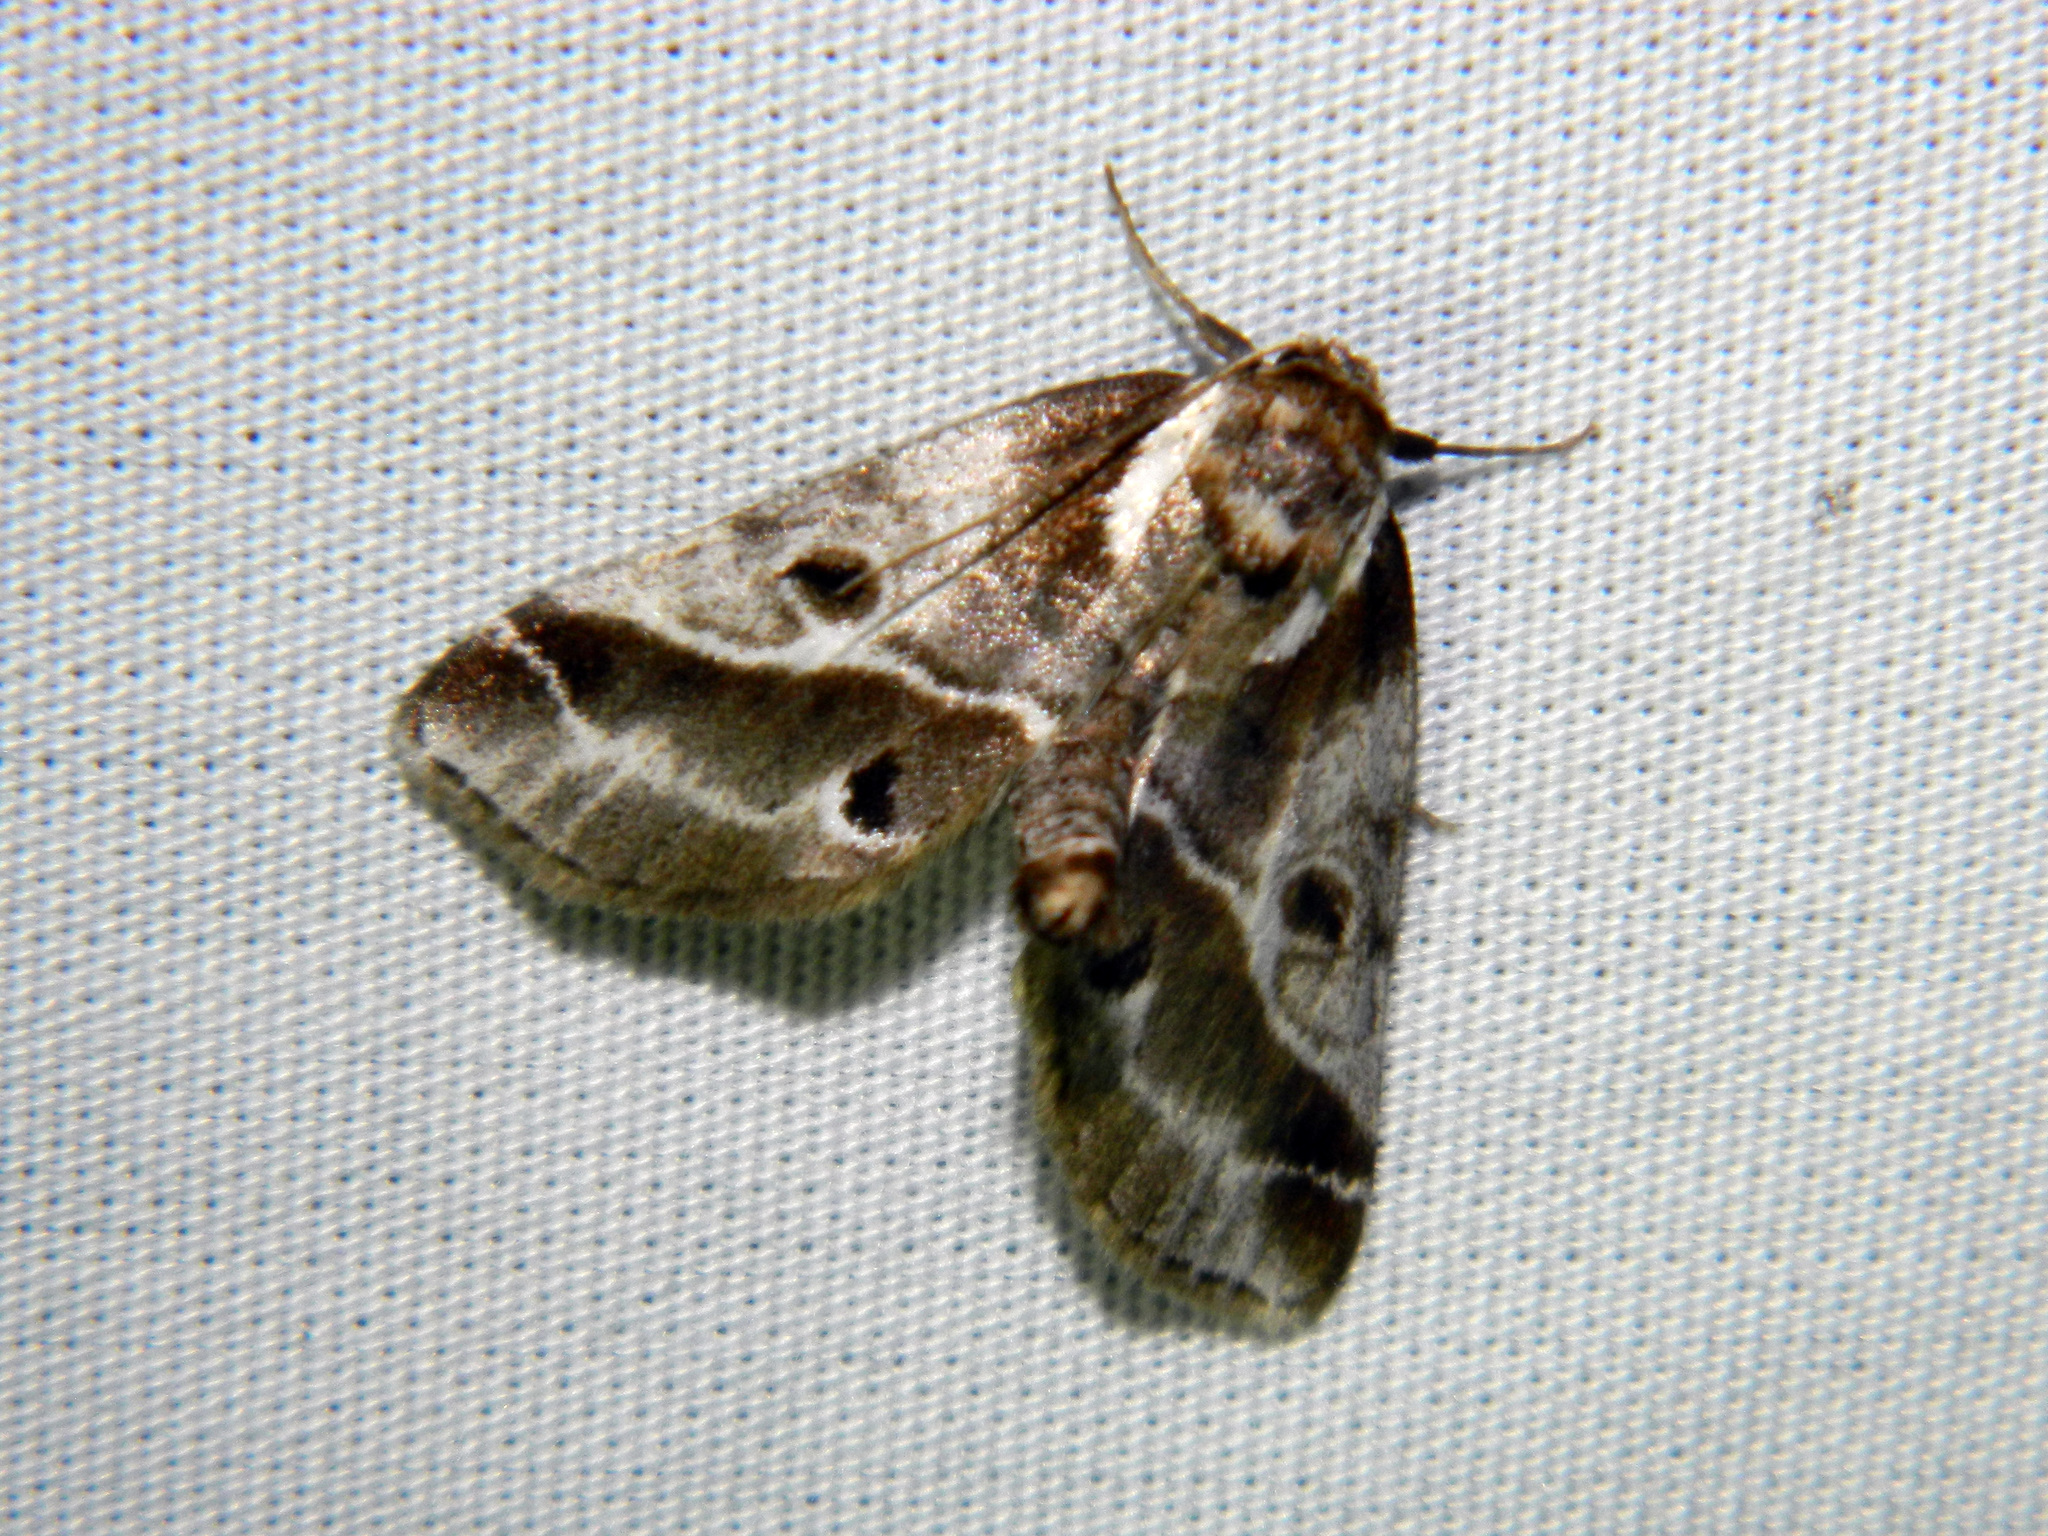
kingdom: Animalia
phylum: Arthropoda
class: Insecta
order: Lepidoptera
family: Nolidae
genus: Baileya
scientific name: Baileya doubledayi
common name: Doubleday's baileya moth
